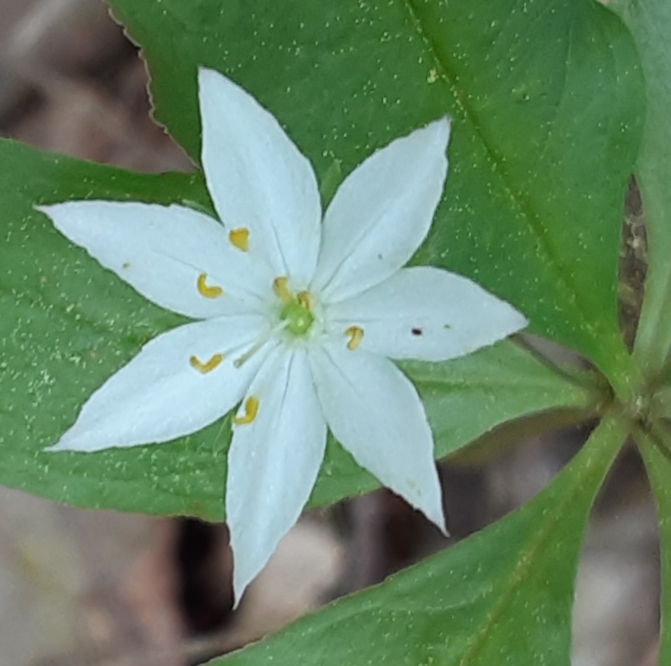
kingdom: Plantae
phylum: Tracheophyta
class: Magnoliopsida
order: Ericales
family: Primulaceae
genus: Lysimachia
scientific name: Lysimachia borealis
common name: American starflower
